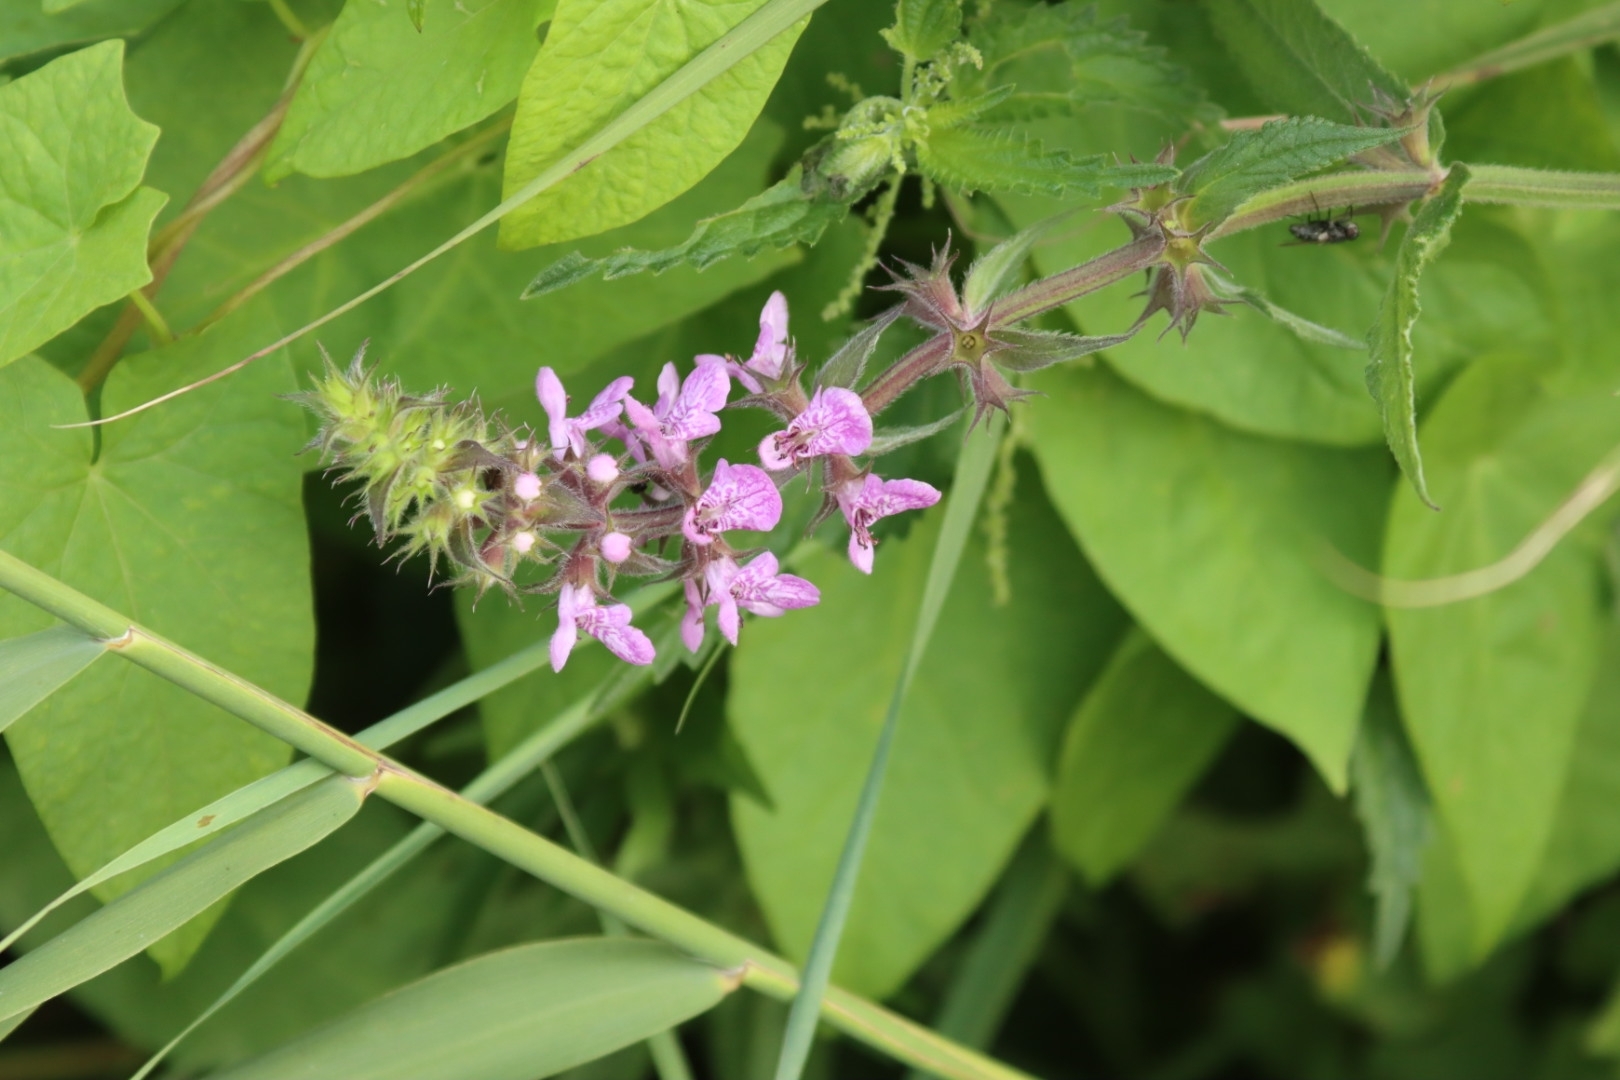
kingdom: Plantae
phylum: Tracheophyta
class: Magnoliopsida
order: Lamiales
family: Lamiaceae
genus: Stachys
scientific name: Stachys palustris
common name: Marsh woundwort
